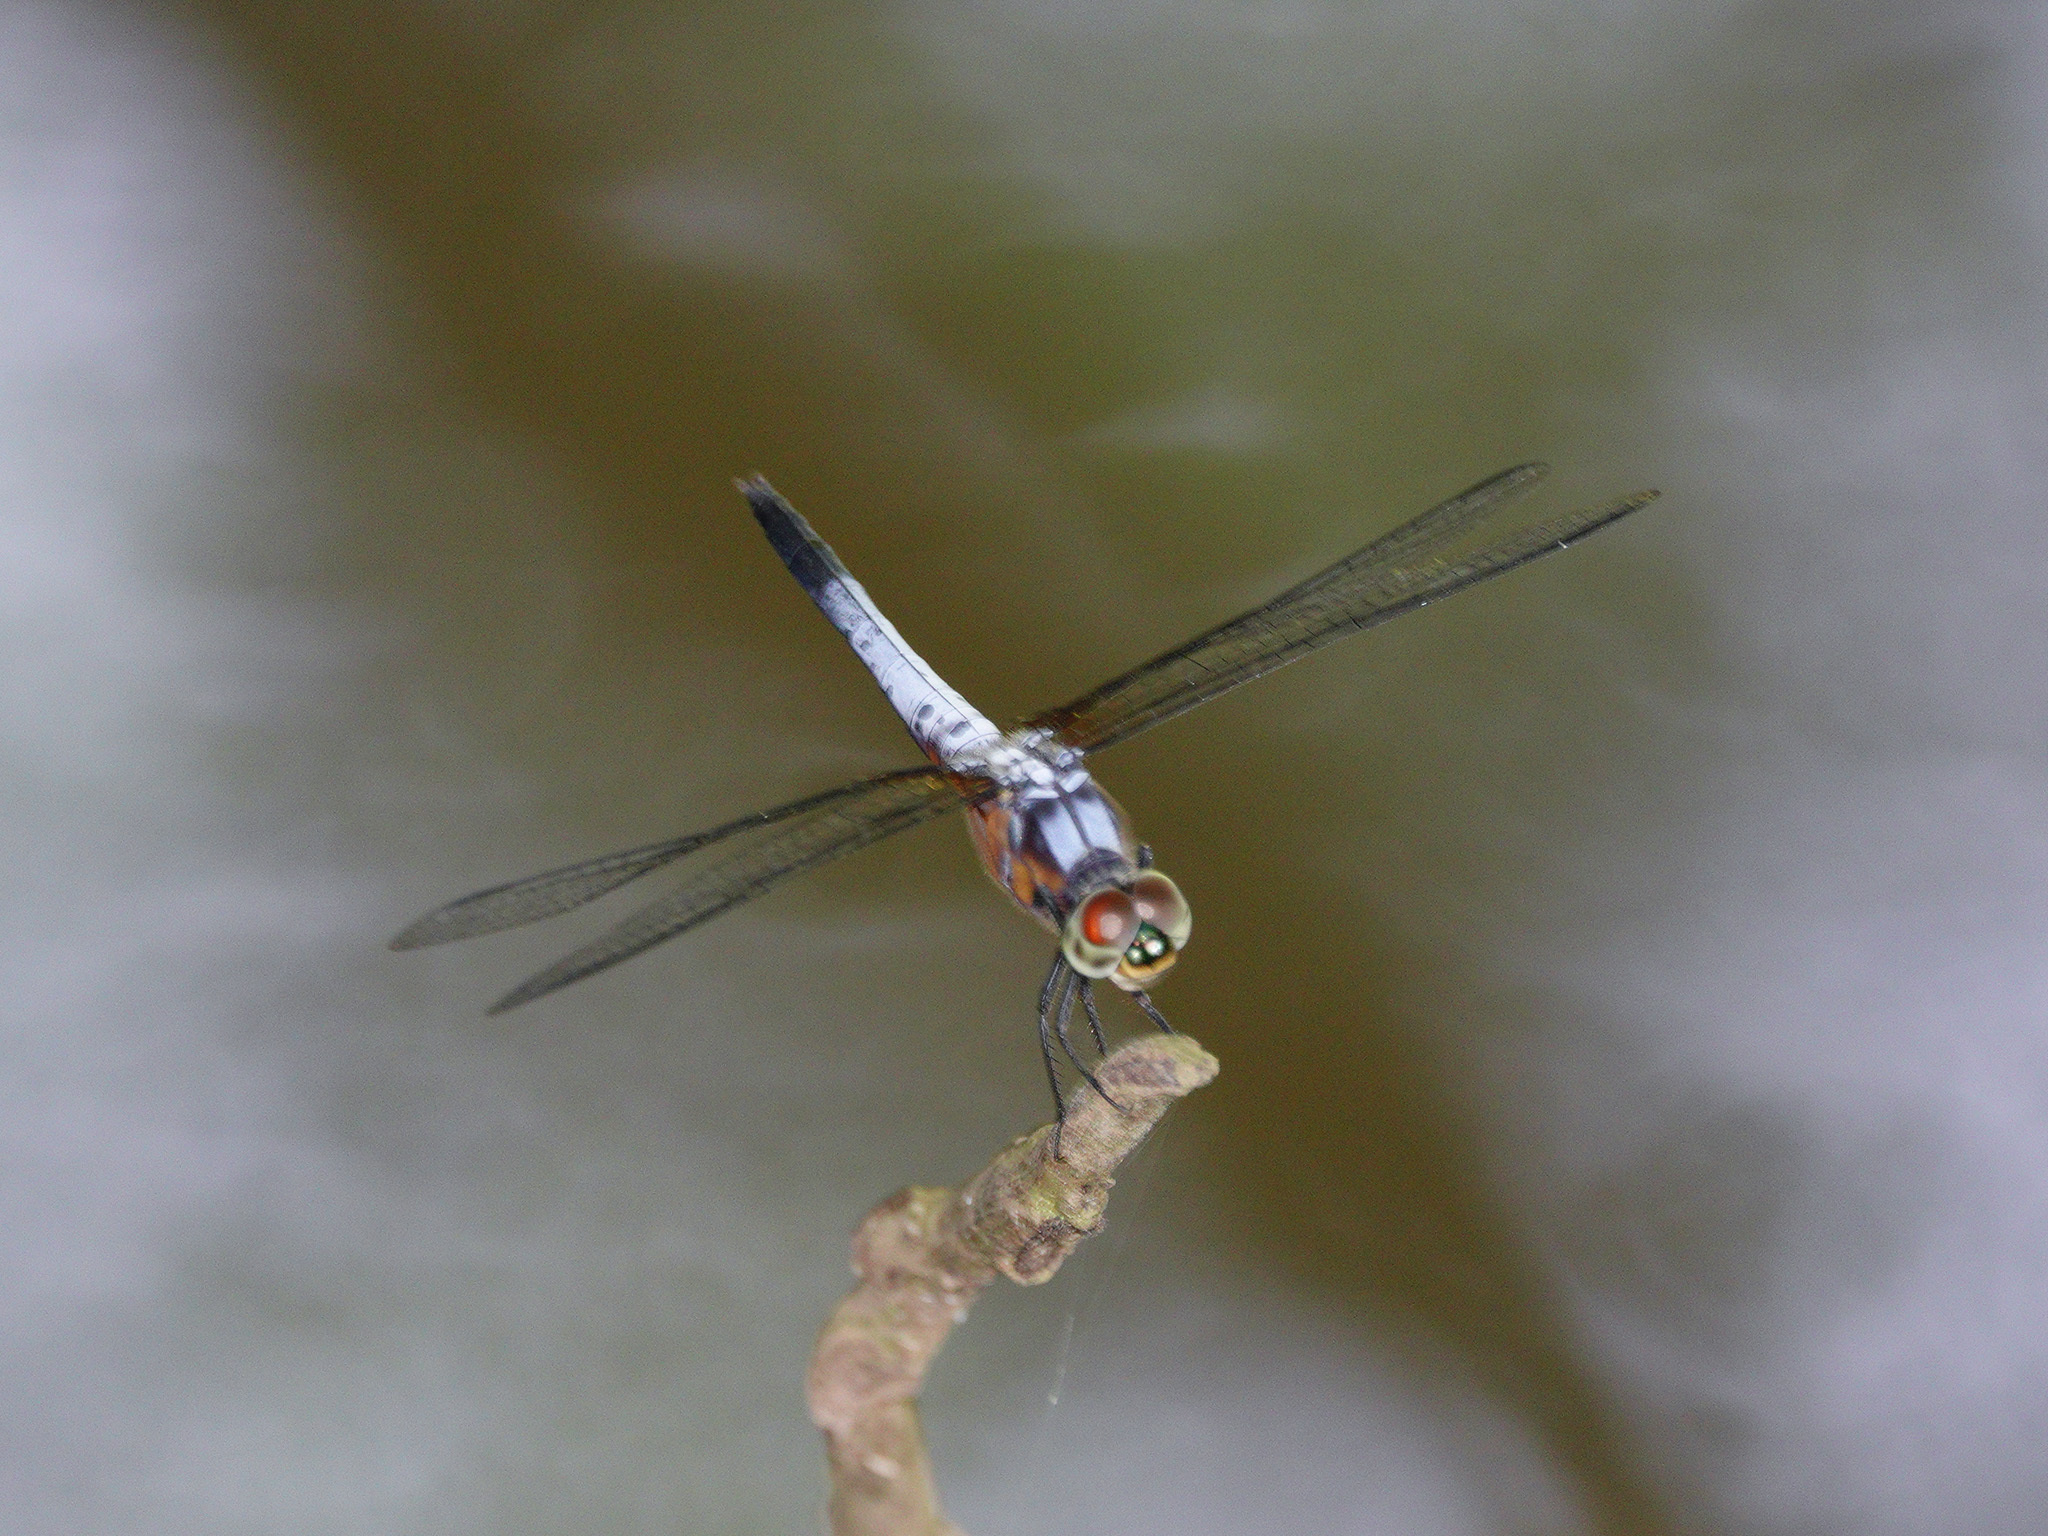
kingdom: Animalia
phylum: Arthropoda
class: Insecta
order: Odonata
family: Libellulidae
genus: Brachydiplax
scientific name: Brachydiplax chalybea
